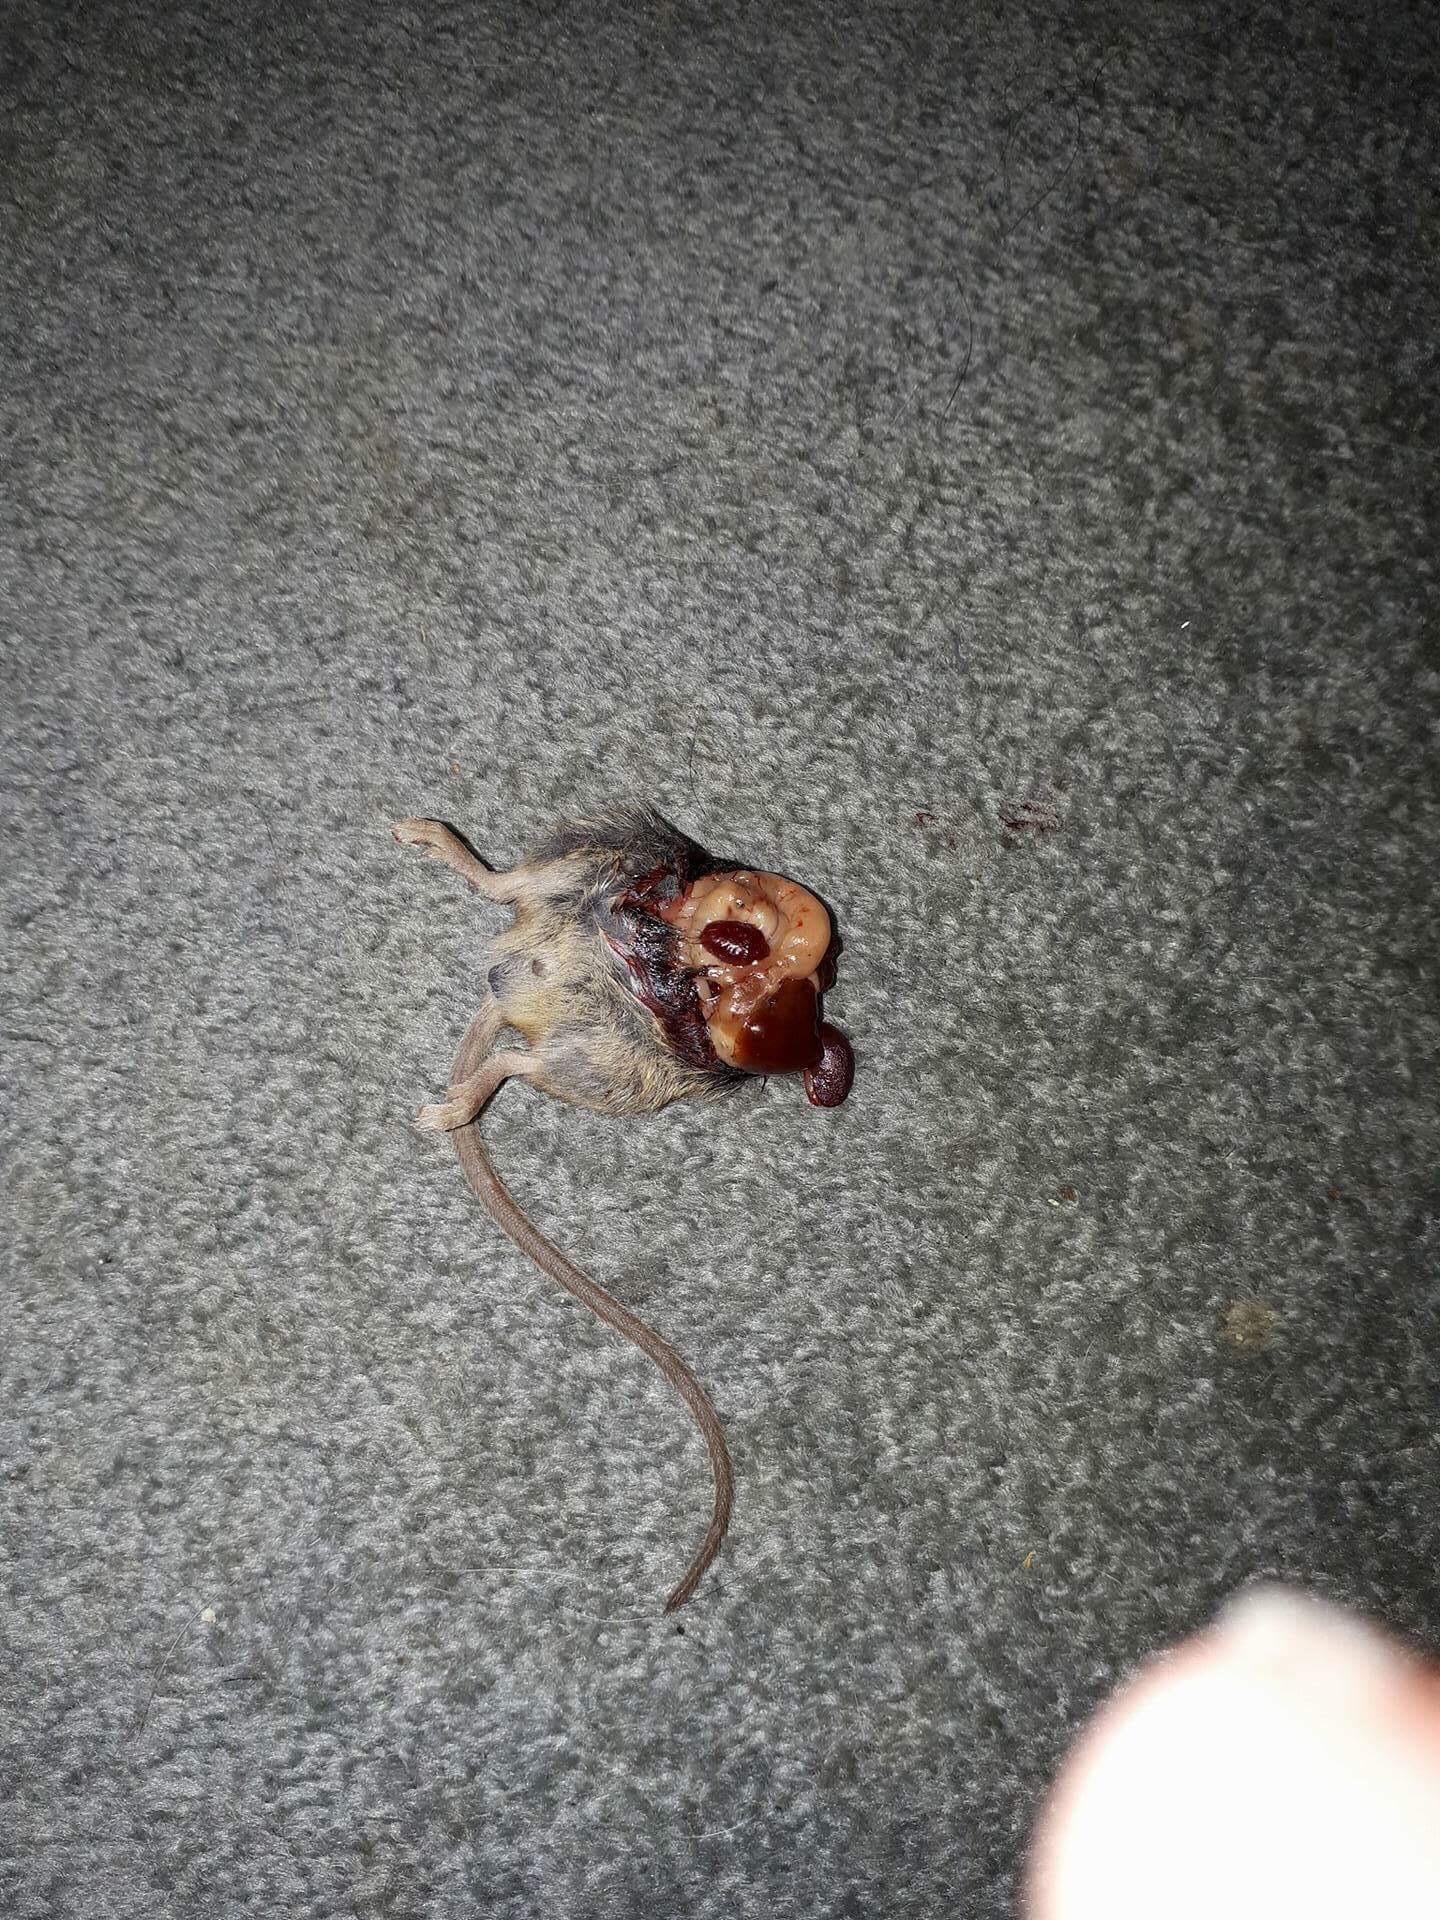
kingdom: Animalia
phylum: Chordata
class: Mammalia
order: Rodentia
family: Muridae
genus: Mus
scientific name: Mus musculus
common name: House mouse
